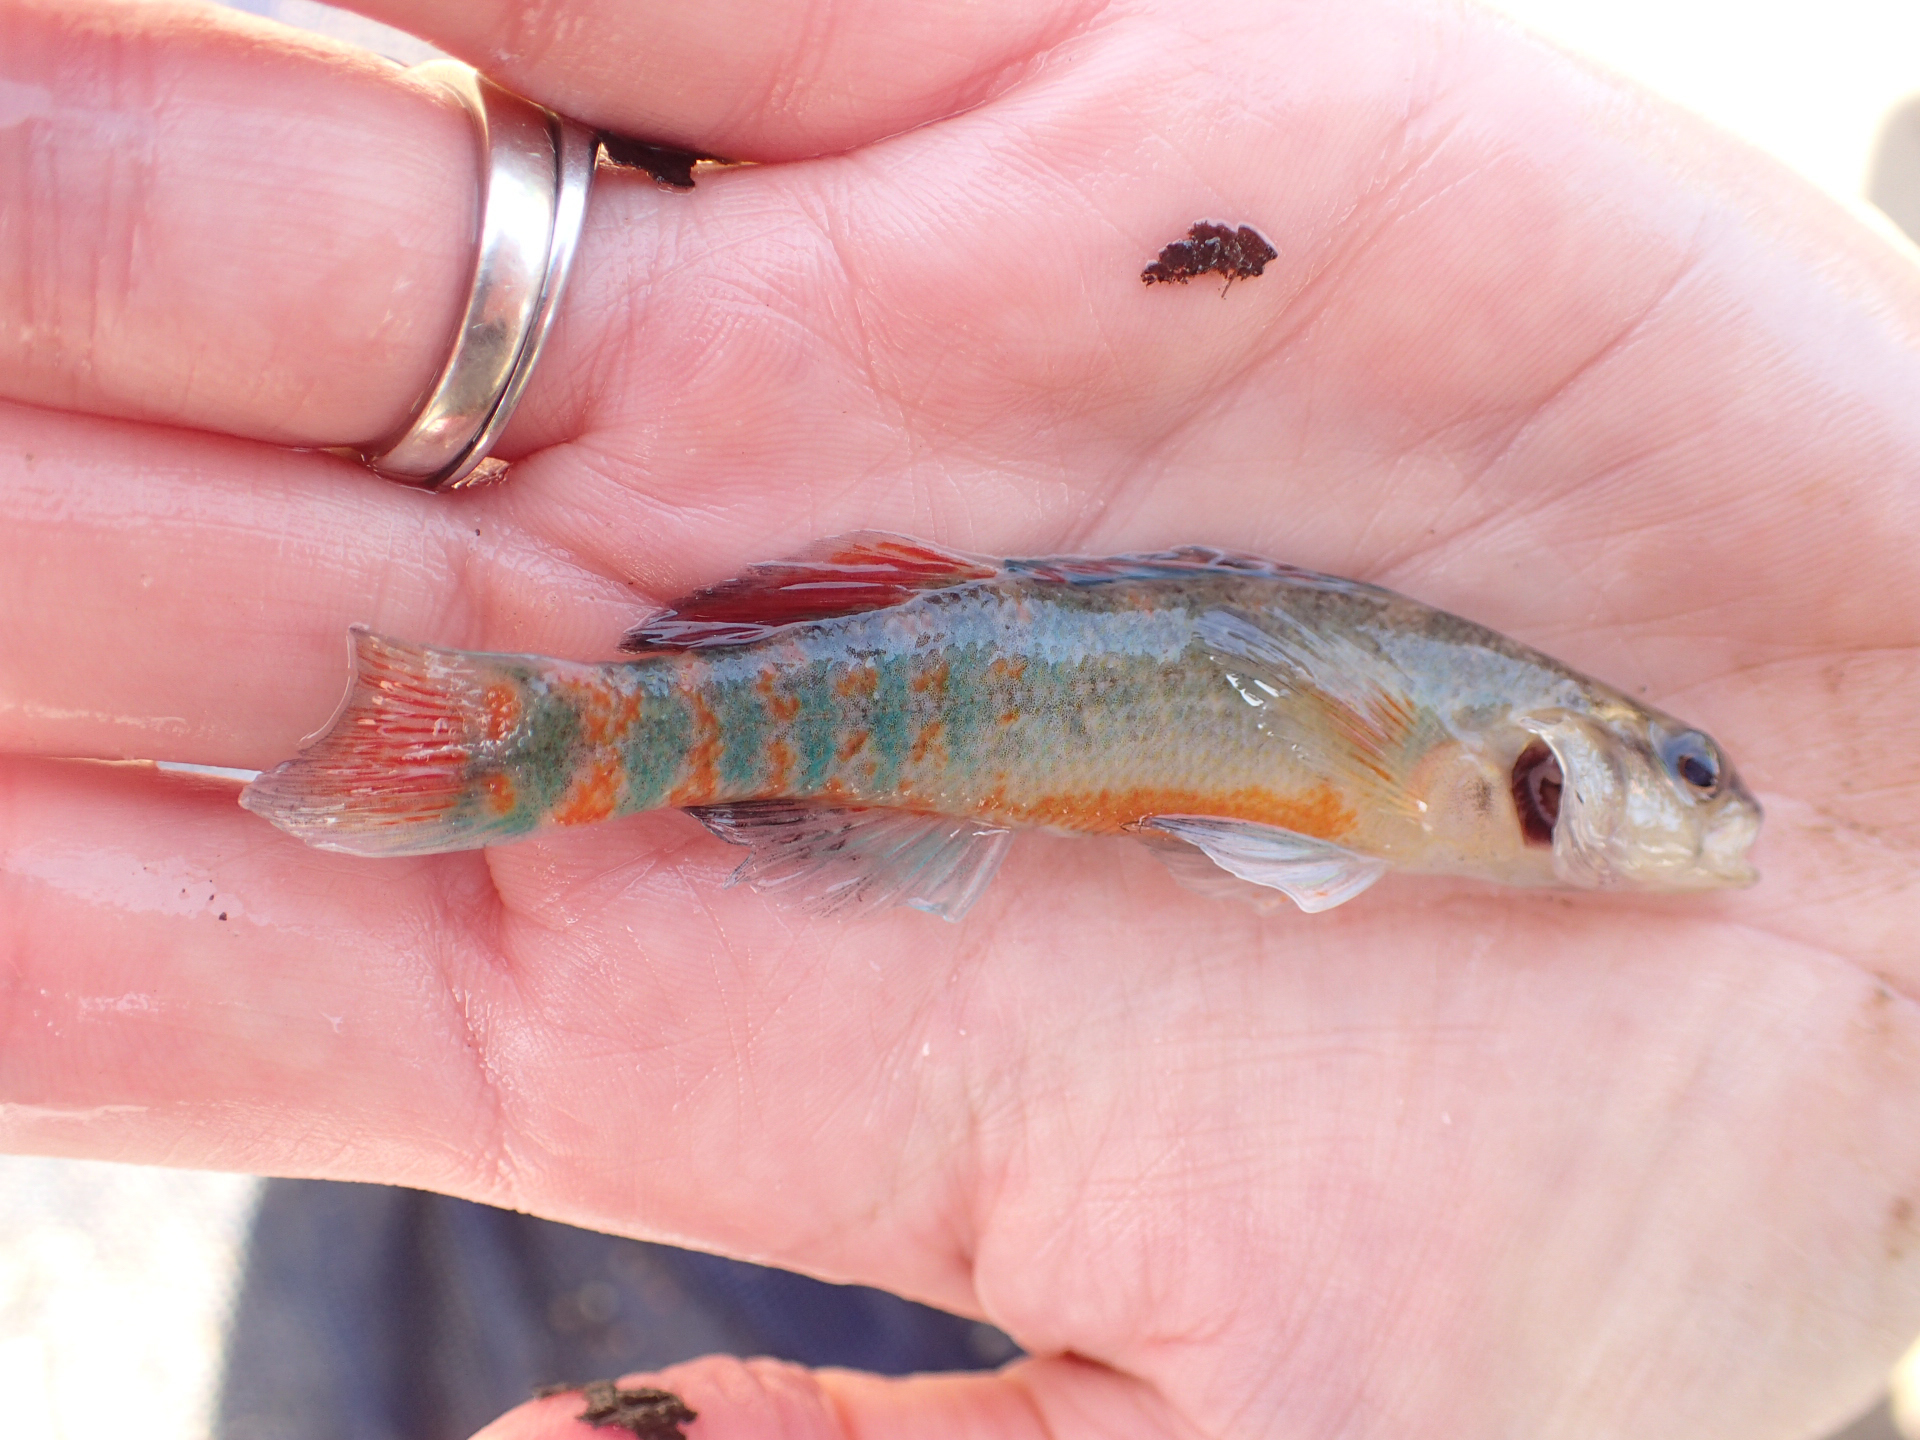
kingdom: Animalia
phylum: Chordata
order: Perciformes
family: Percidae
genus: Etheostoma
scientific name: Etheostoma asprigene
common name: Mud darter
